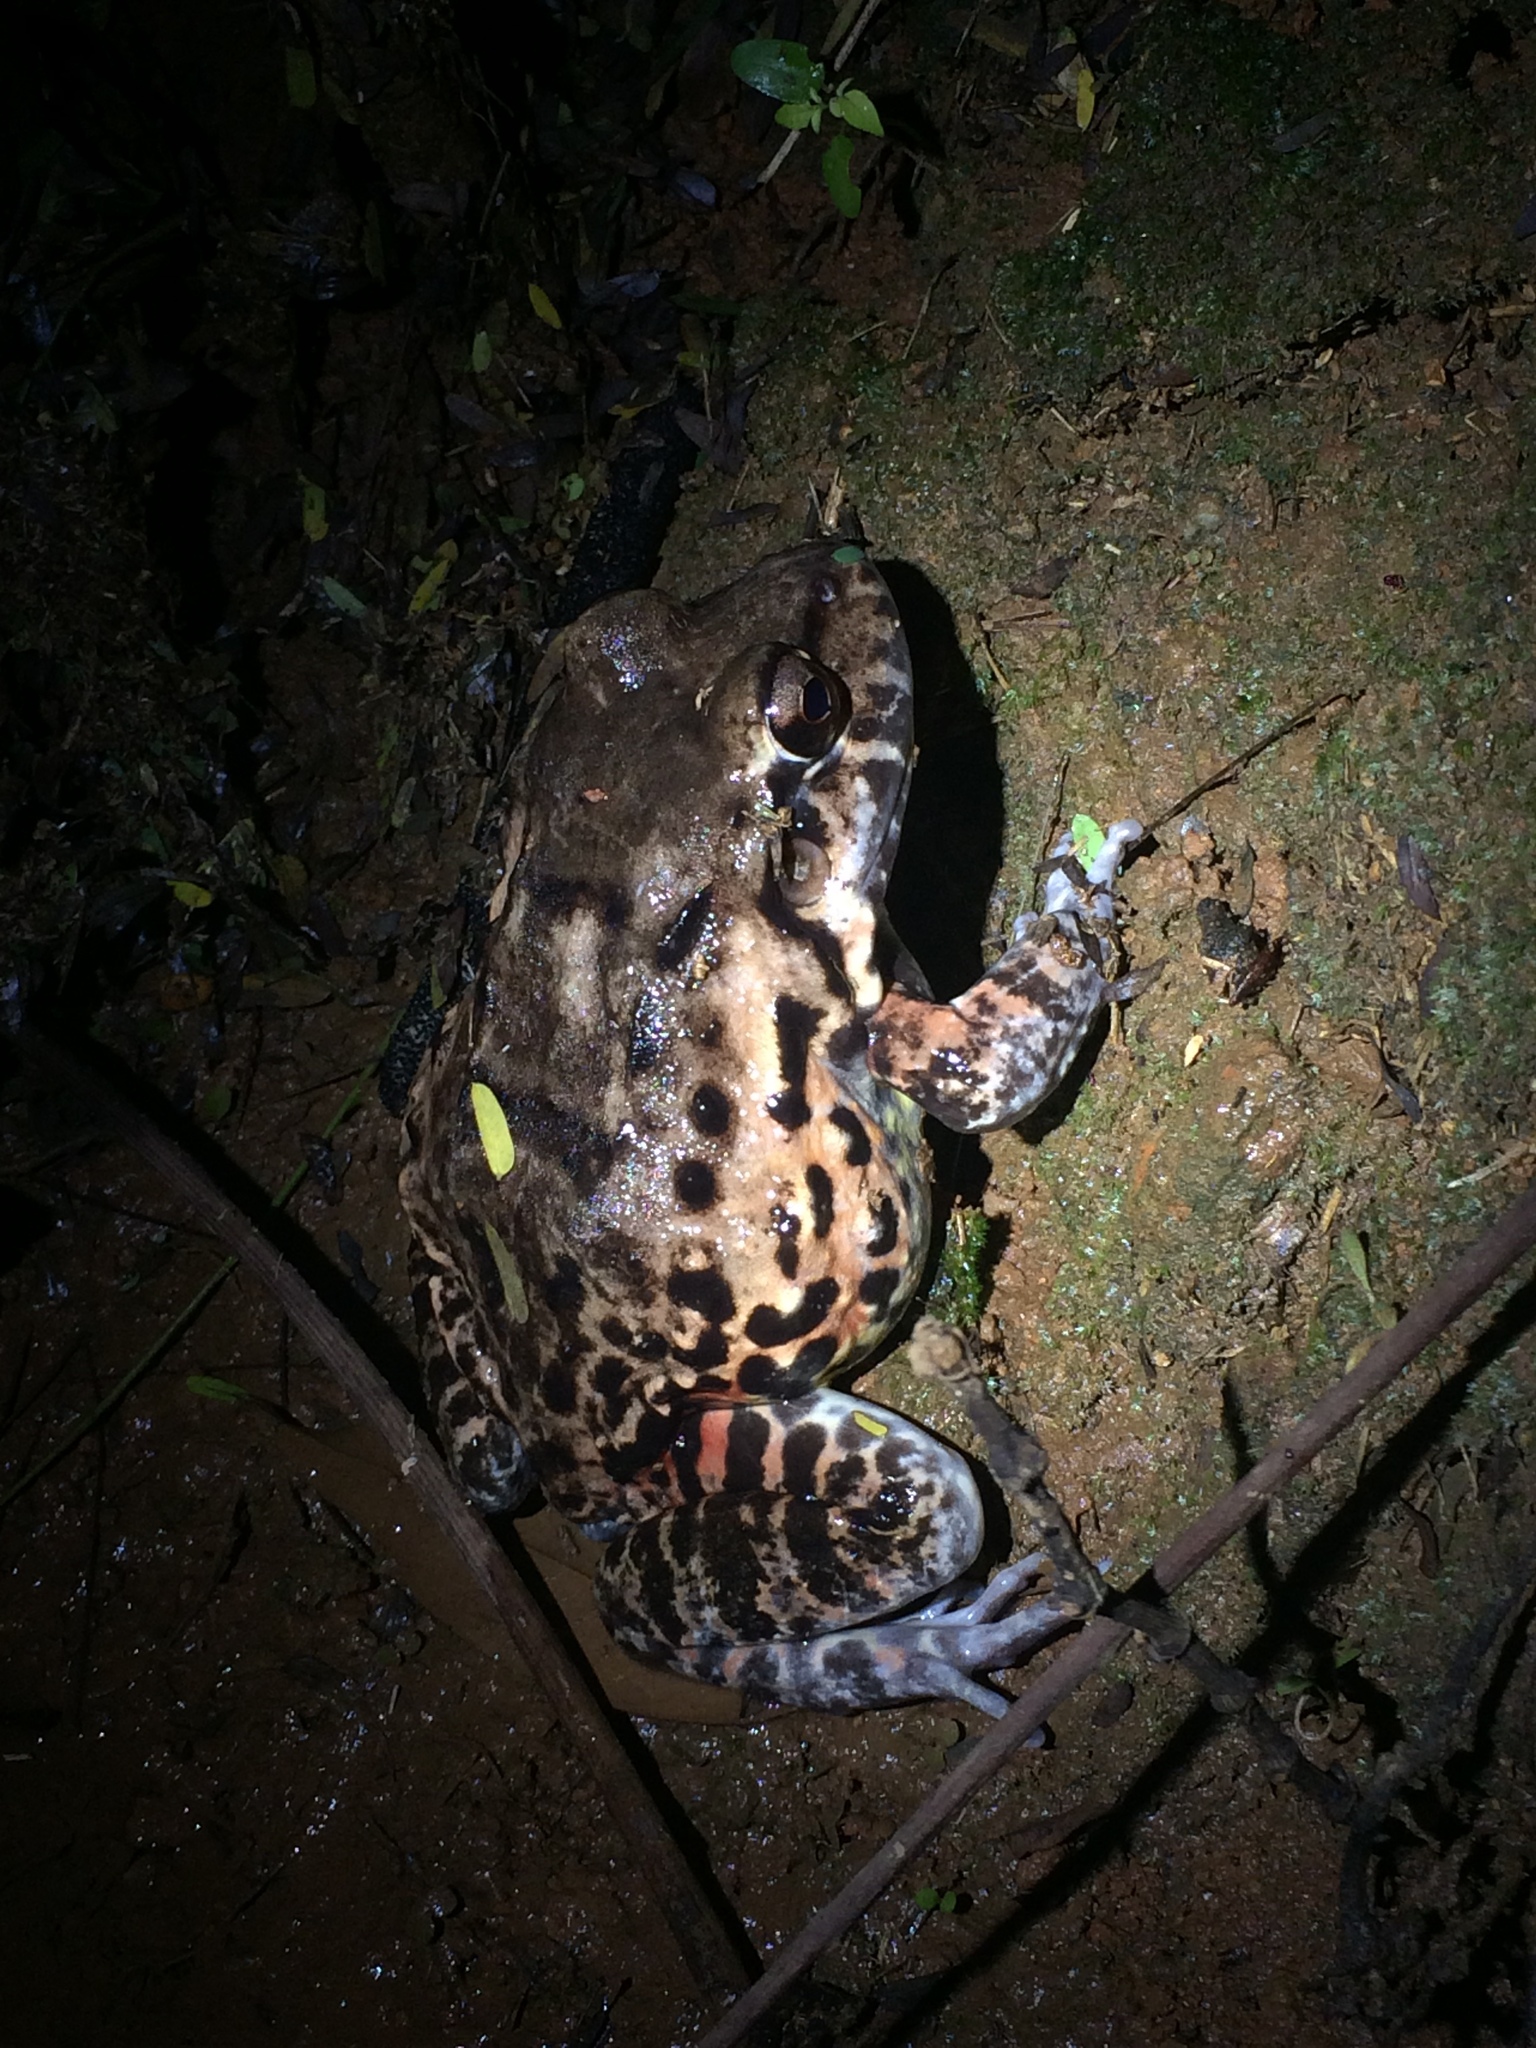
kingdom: Animalia
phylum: Chordata
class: Amphibia
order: Anura
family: Leptodactylidae
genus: Leptodactylus
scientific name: Leptodactylus vastus
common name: Northeastern pepper frog
